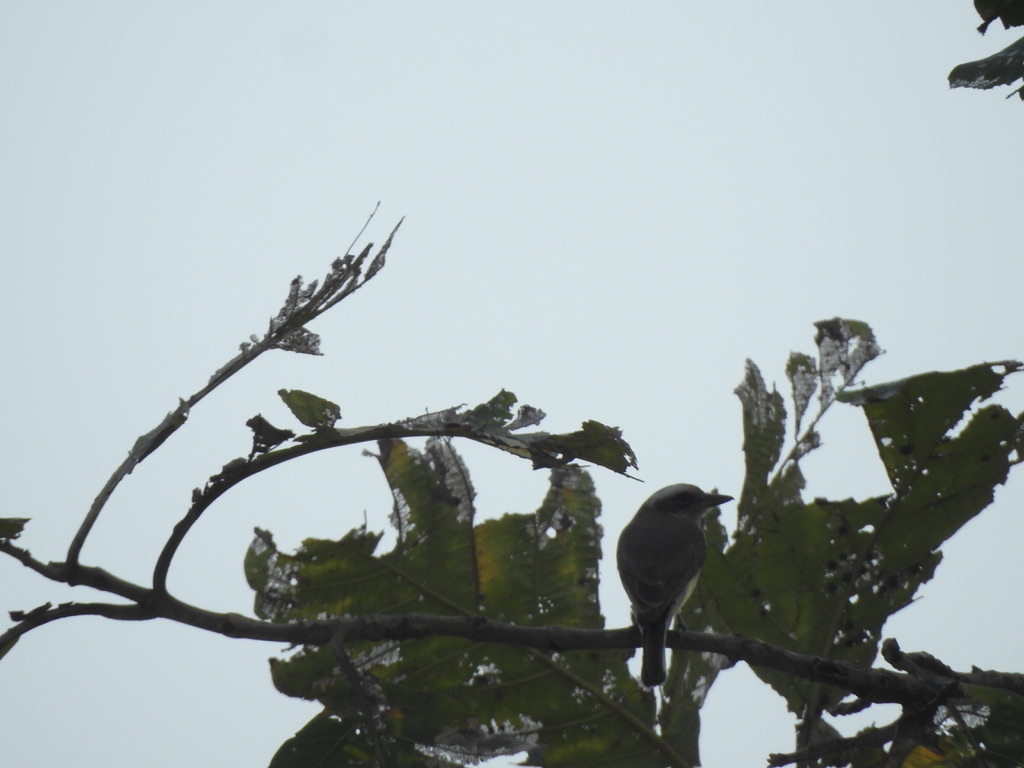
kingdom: Animalia
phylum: Chordata
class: Aves
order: Passeriformes
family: Tephrodornithidae
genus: Tephrodornis
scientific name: Tephrodornis pondicerianus
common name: Common woodshrike
